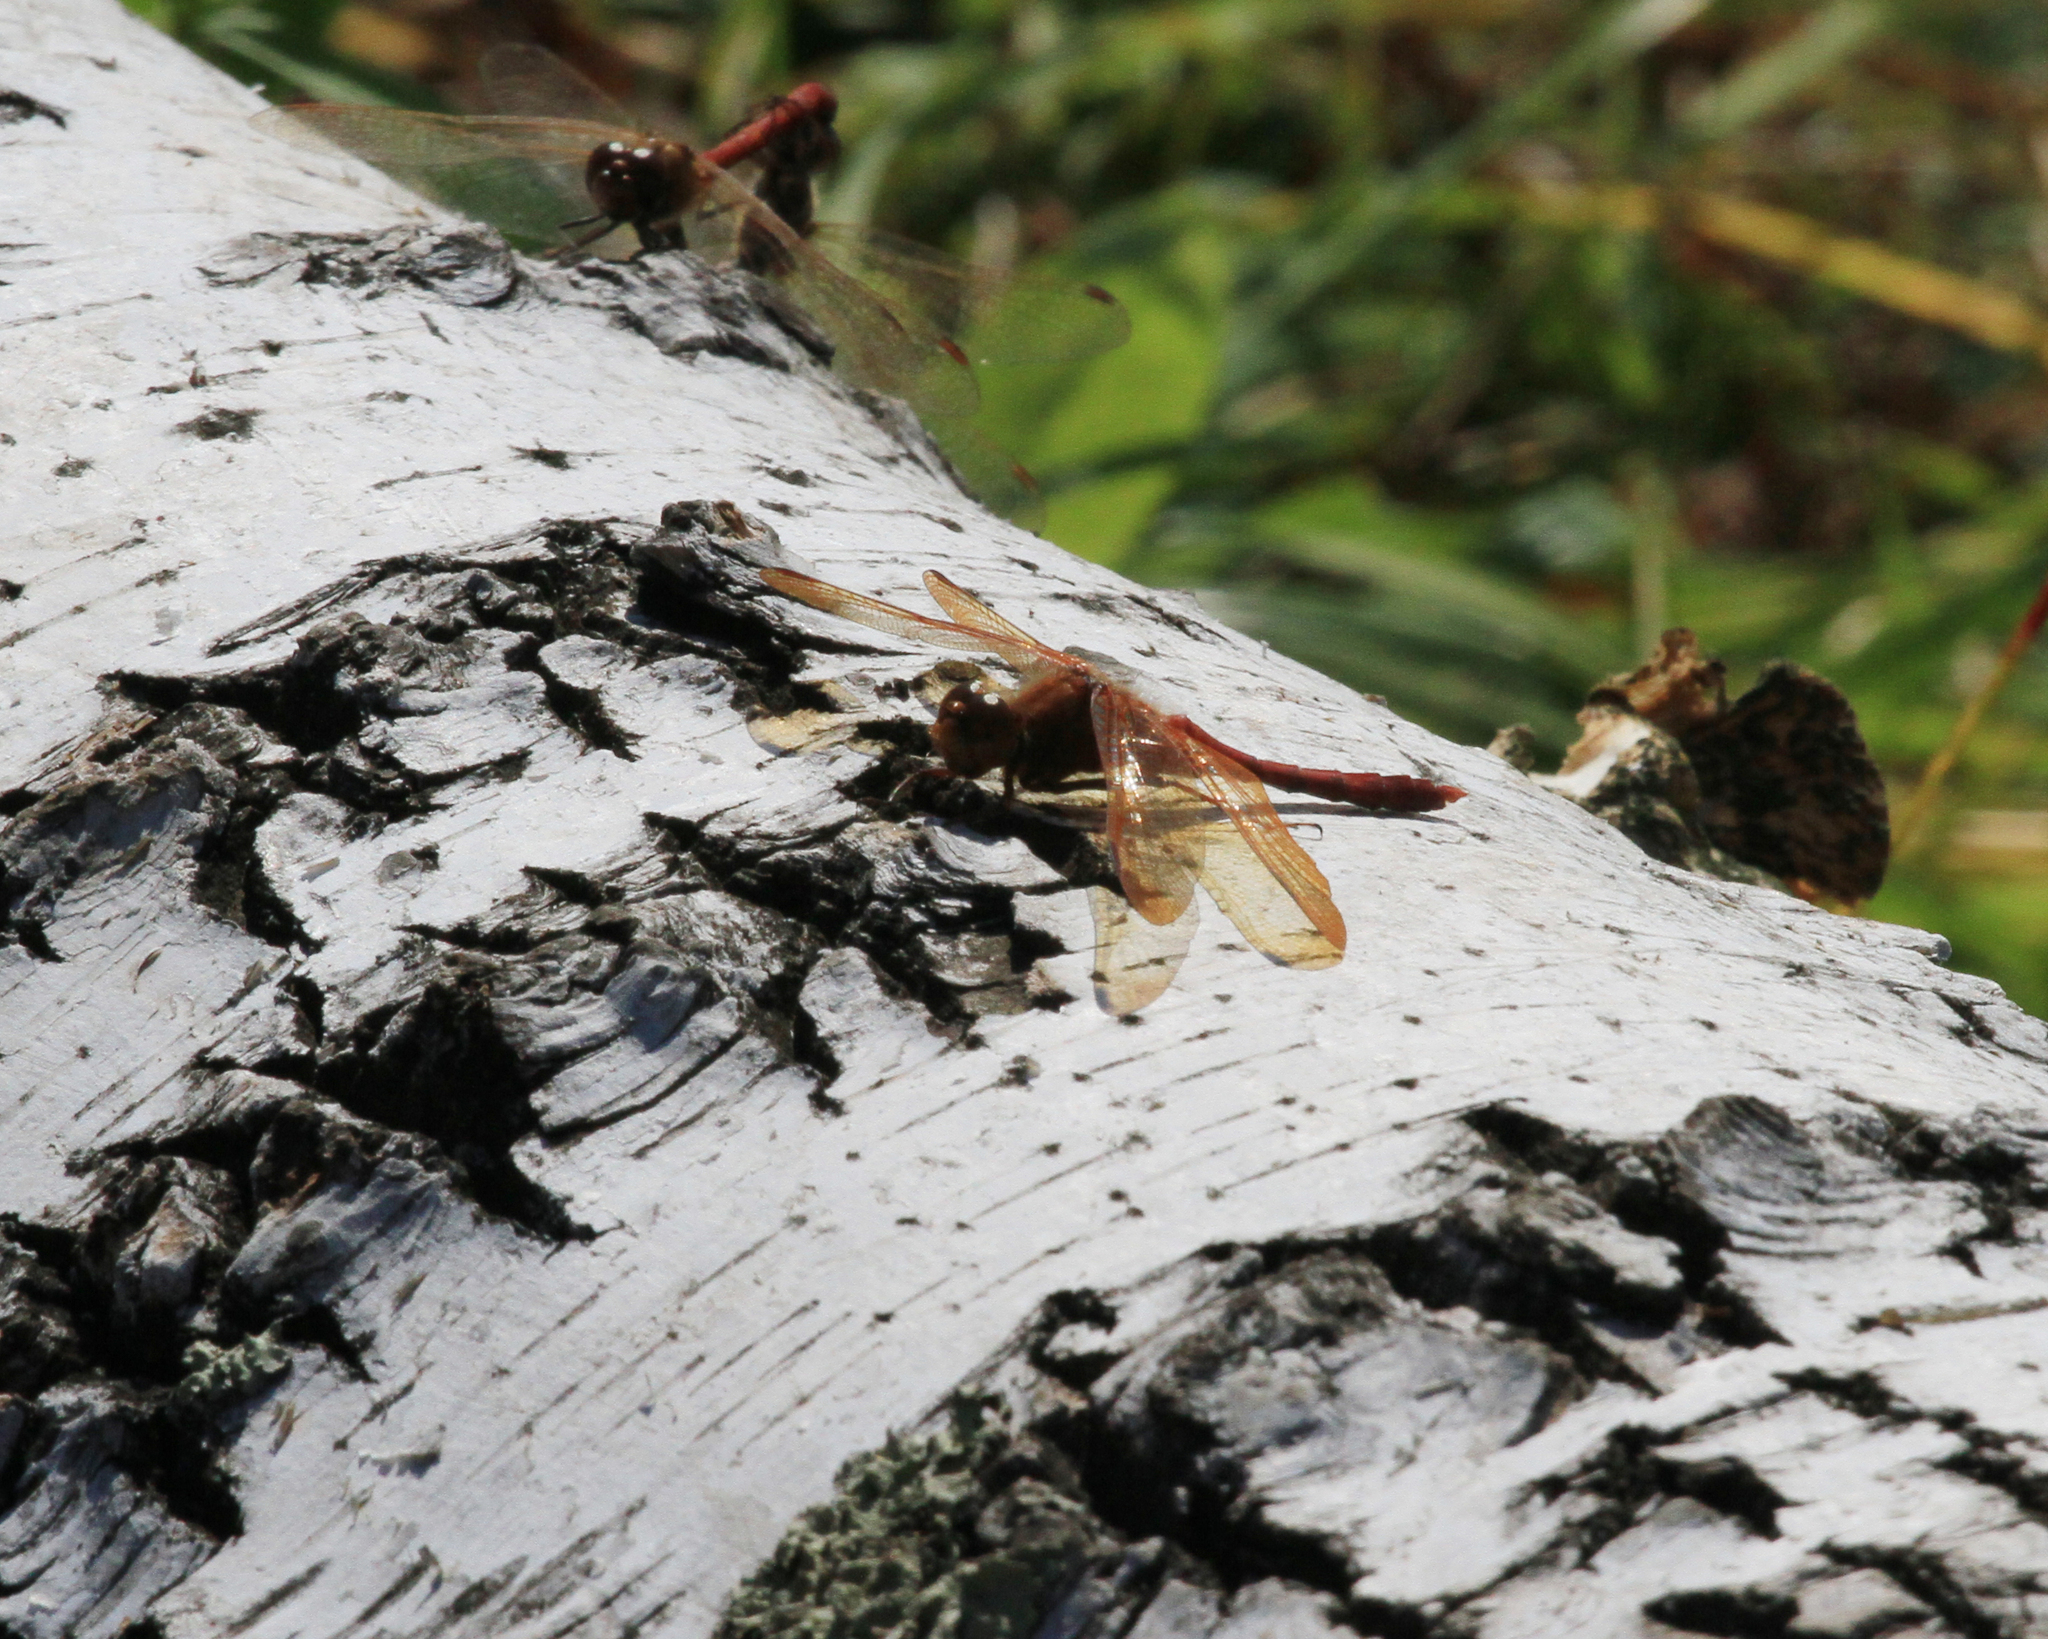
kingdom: Animalia
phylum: Arthropoda
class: Insecta
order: Odonata
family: Libellulidae
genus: Sympetrum
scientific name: Sympetrum croceolum
